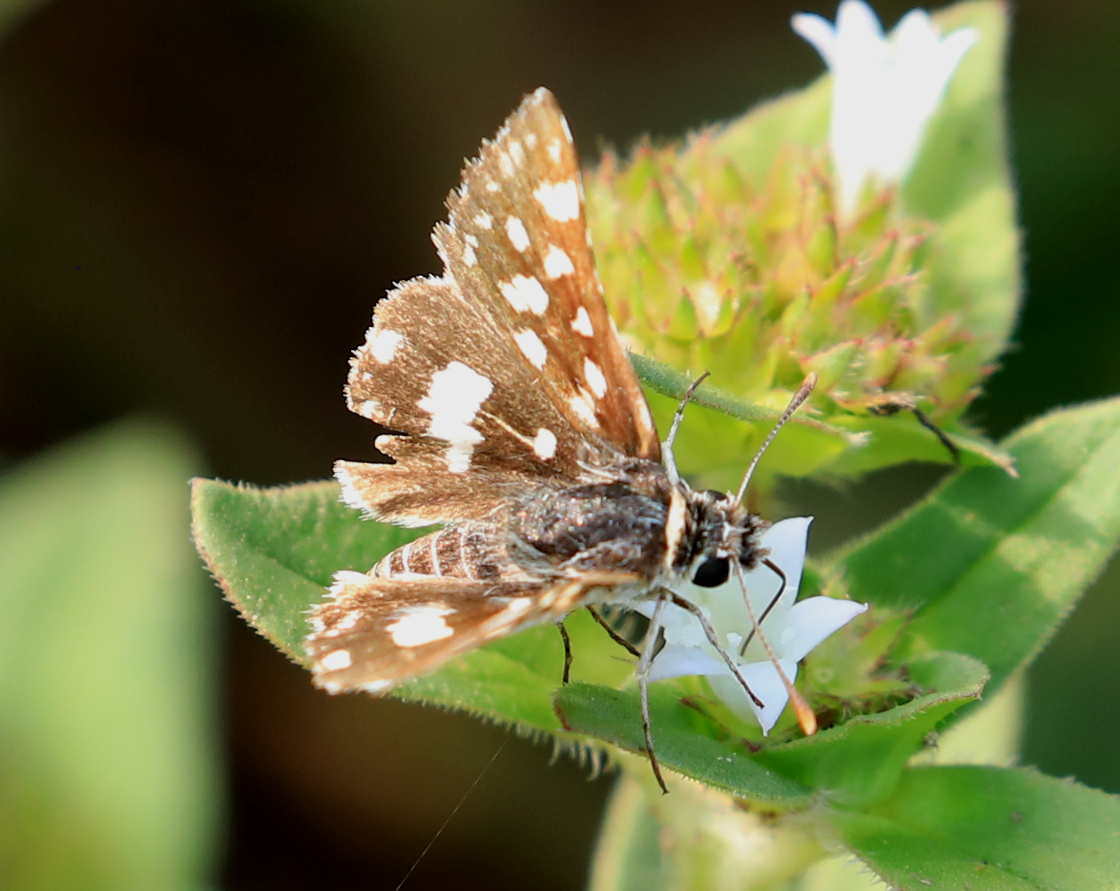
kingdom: Animalia
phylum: Arthropoda
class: Insecta
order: Lepidoptera
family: Hesperiidae
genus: Spialia
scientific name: Spialia spio
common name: Mountain sandman
